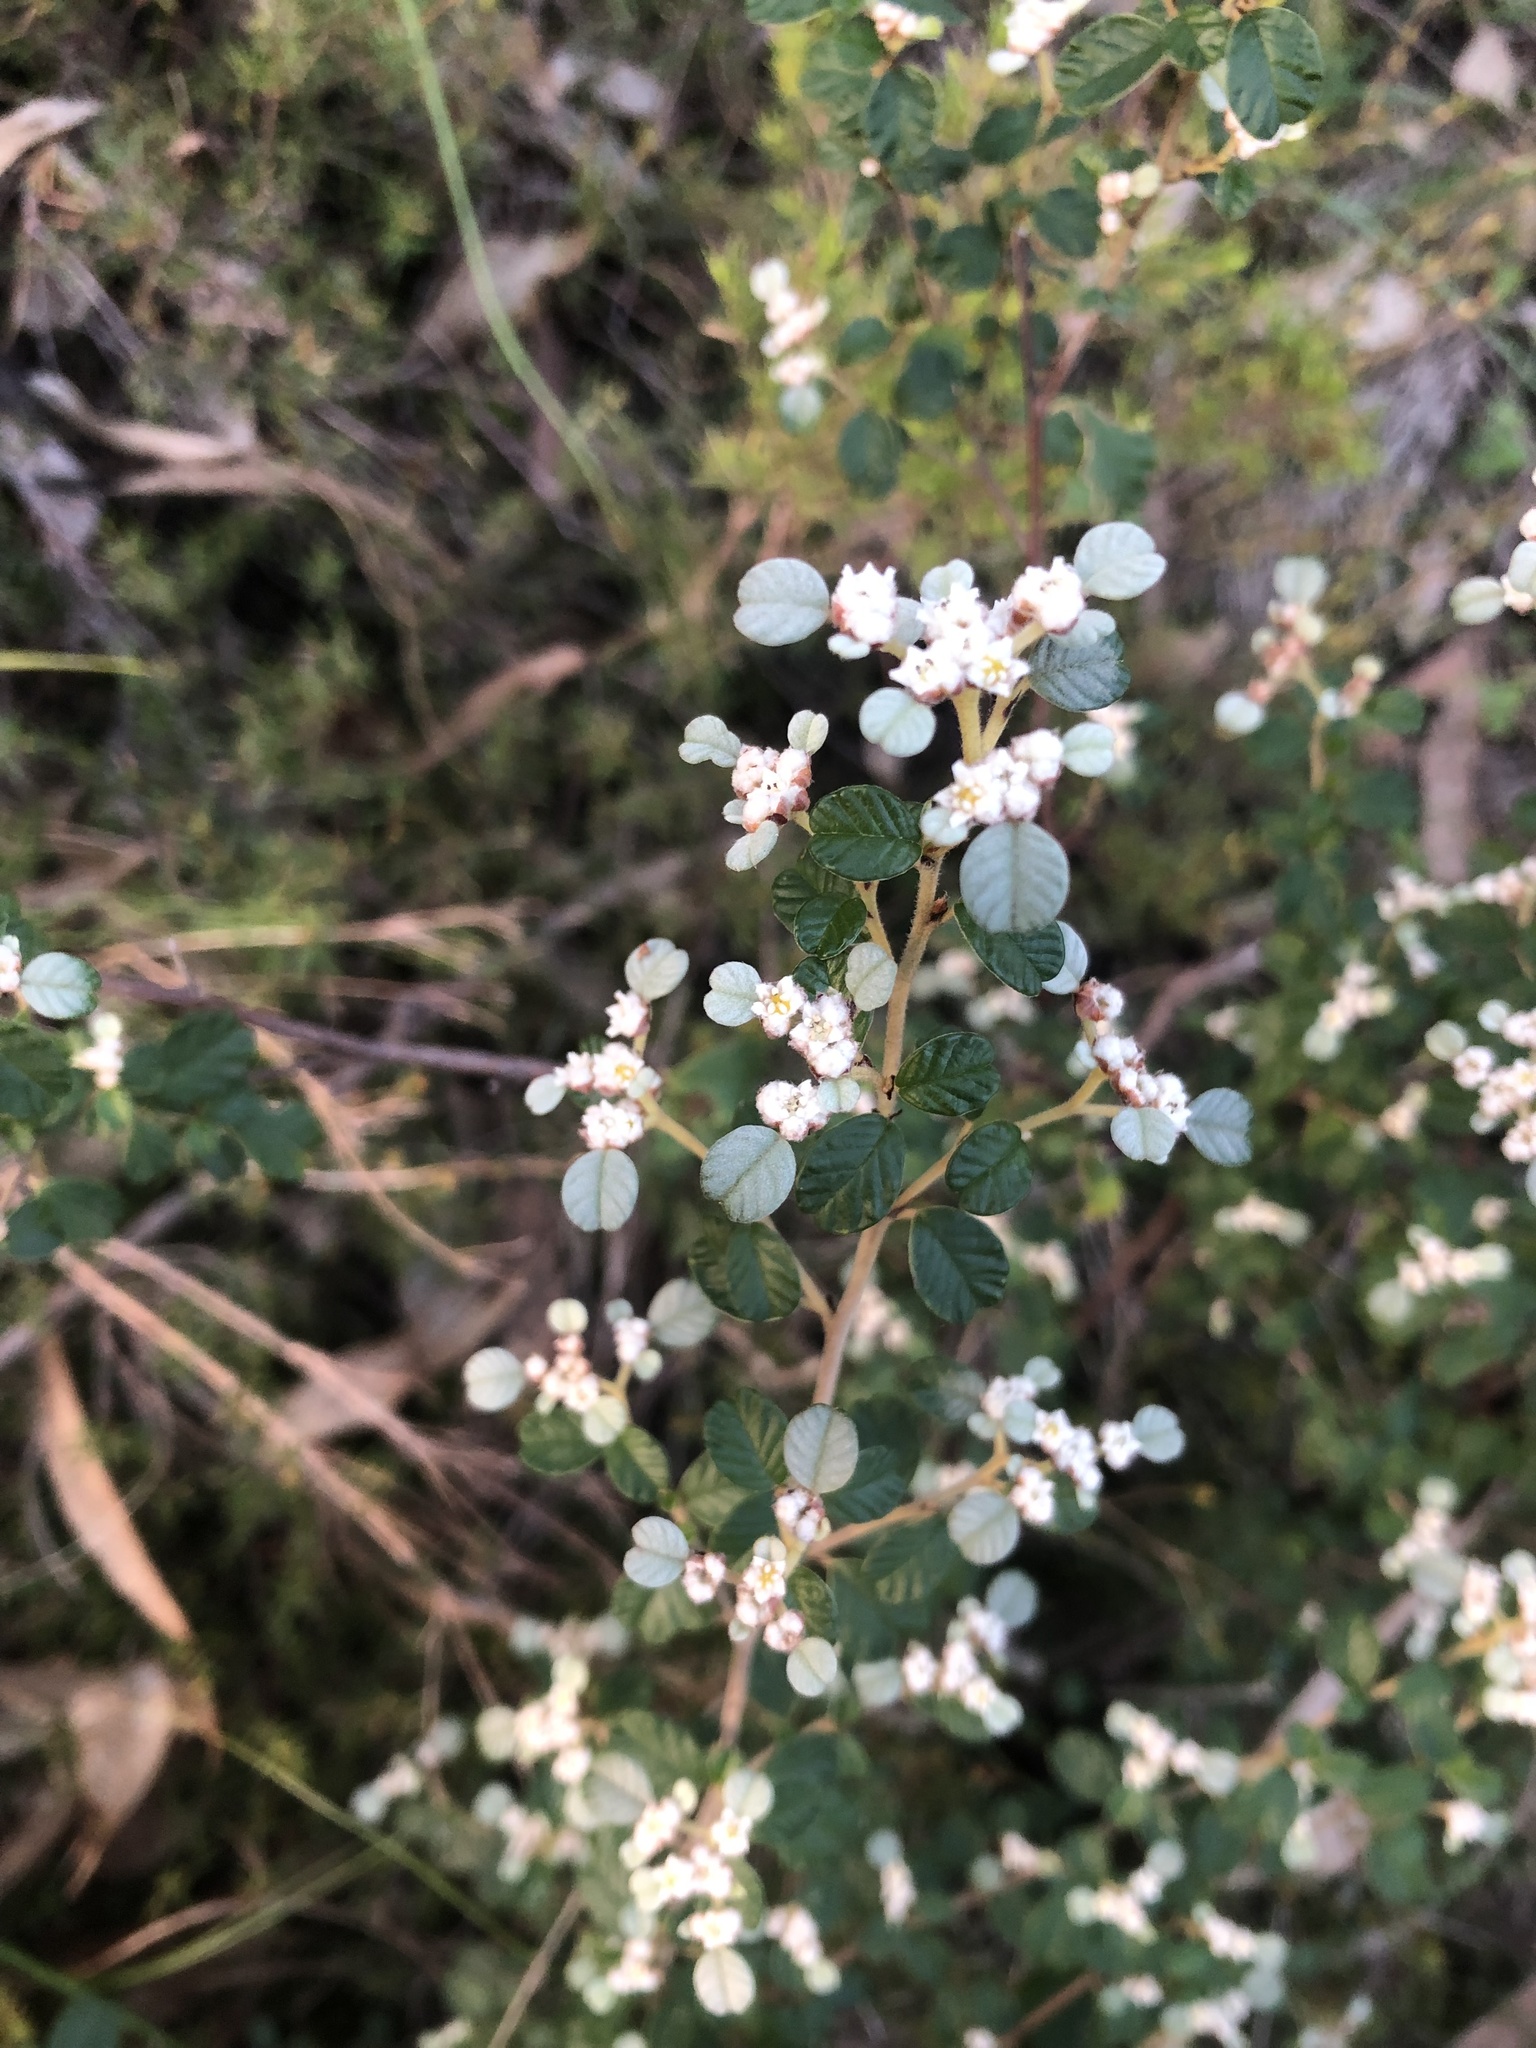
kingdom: Plantae
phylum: Tracheophyta
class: Magnoliopsida
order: Rosales
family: Rhamnaceae
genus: Spyridium
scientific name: Spyridium parvifolium
